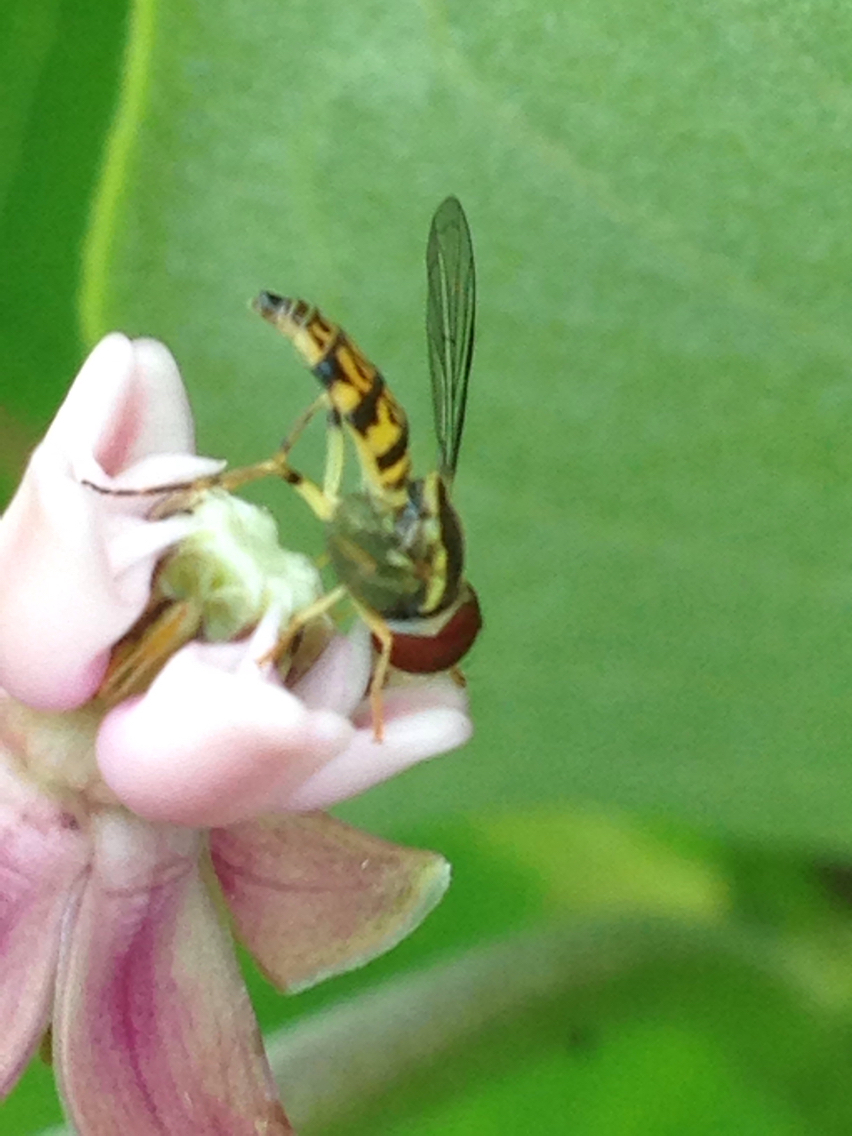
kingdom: Animalia
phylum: Arthropoda
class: Insecta
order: Diptera
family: Syrphidae
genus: Toxomerus
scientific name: Toxomerus geminatus
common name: Eastern calligrapher
